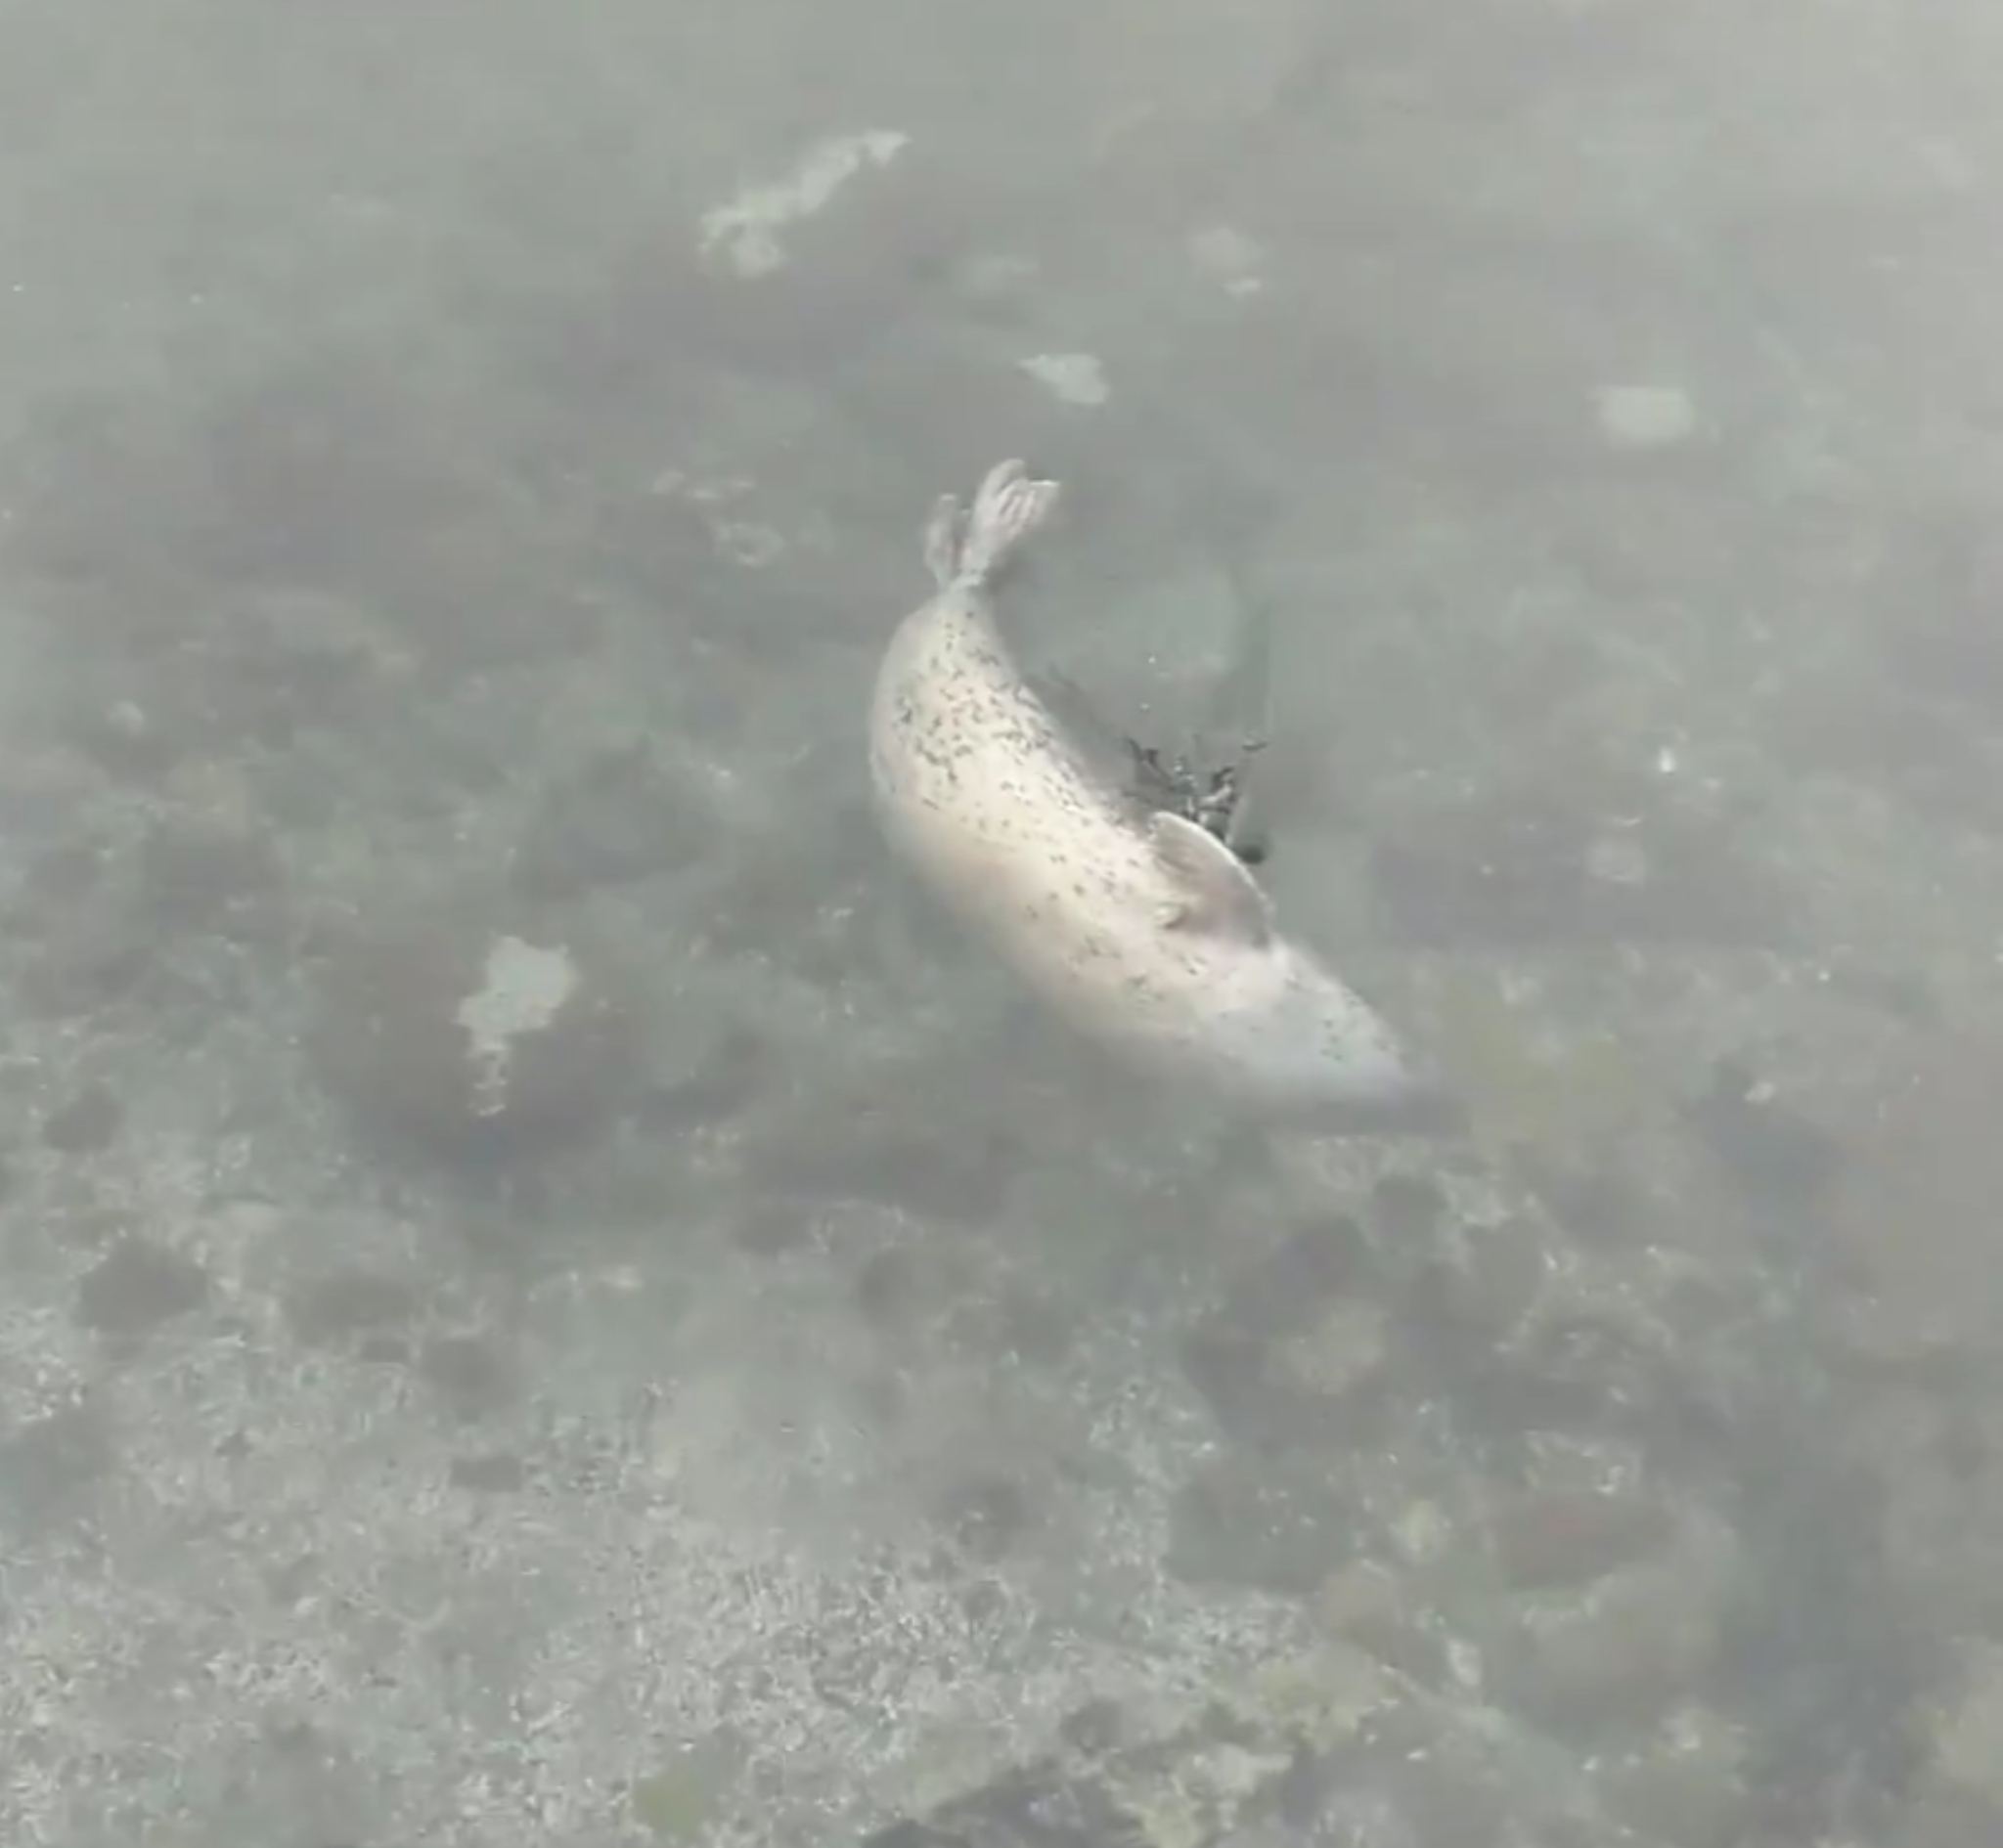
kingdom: Animalia
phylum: Chordata
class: Mammalia
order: Carnivora
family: Phocidae
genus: Phoca
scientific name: Phoca vitulina
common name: Harbor seal
